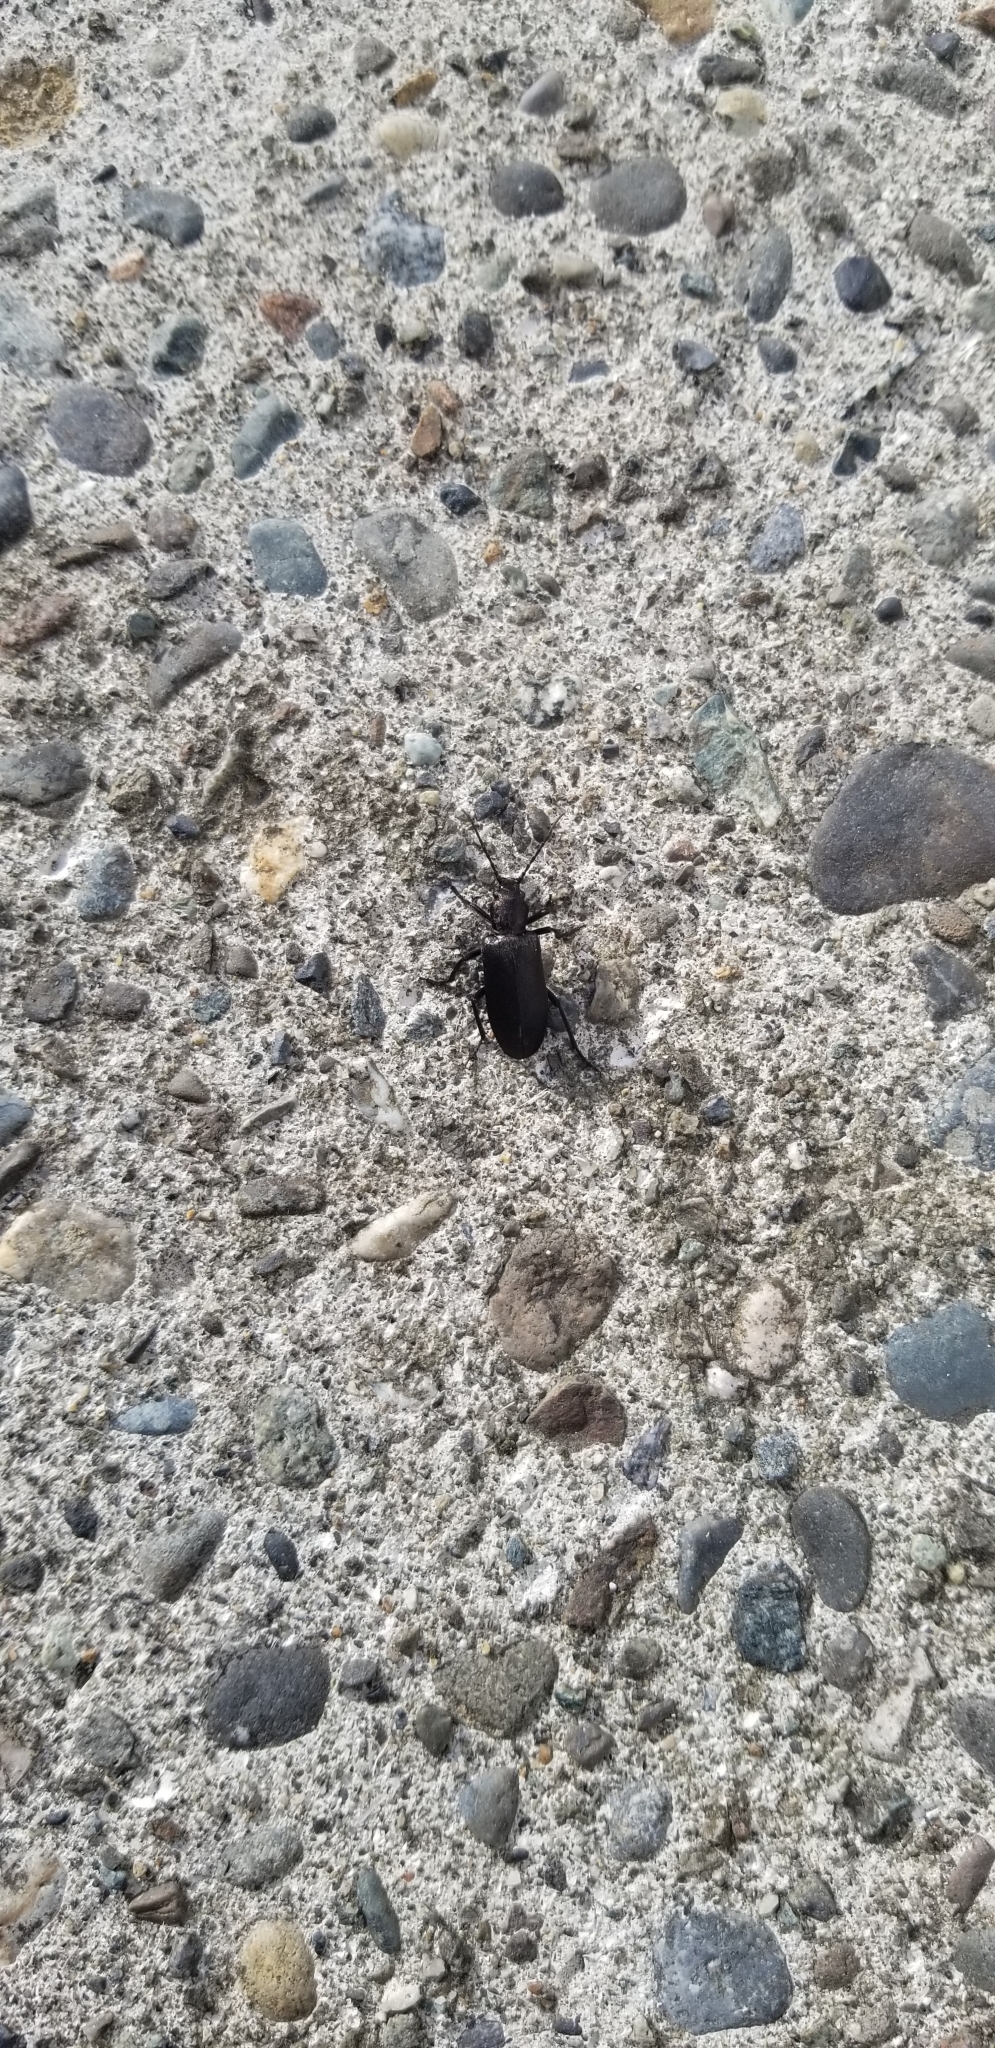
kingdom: Animalia
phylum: Arthropoda
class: Insecta
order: Coleoptera
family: Oedemeridae
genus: Ditylus
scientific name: Ditylus quadricollis
